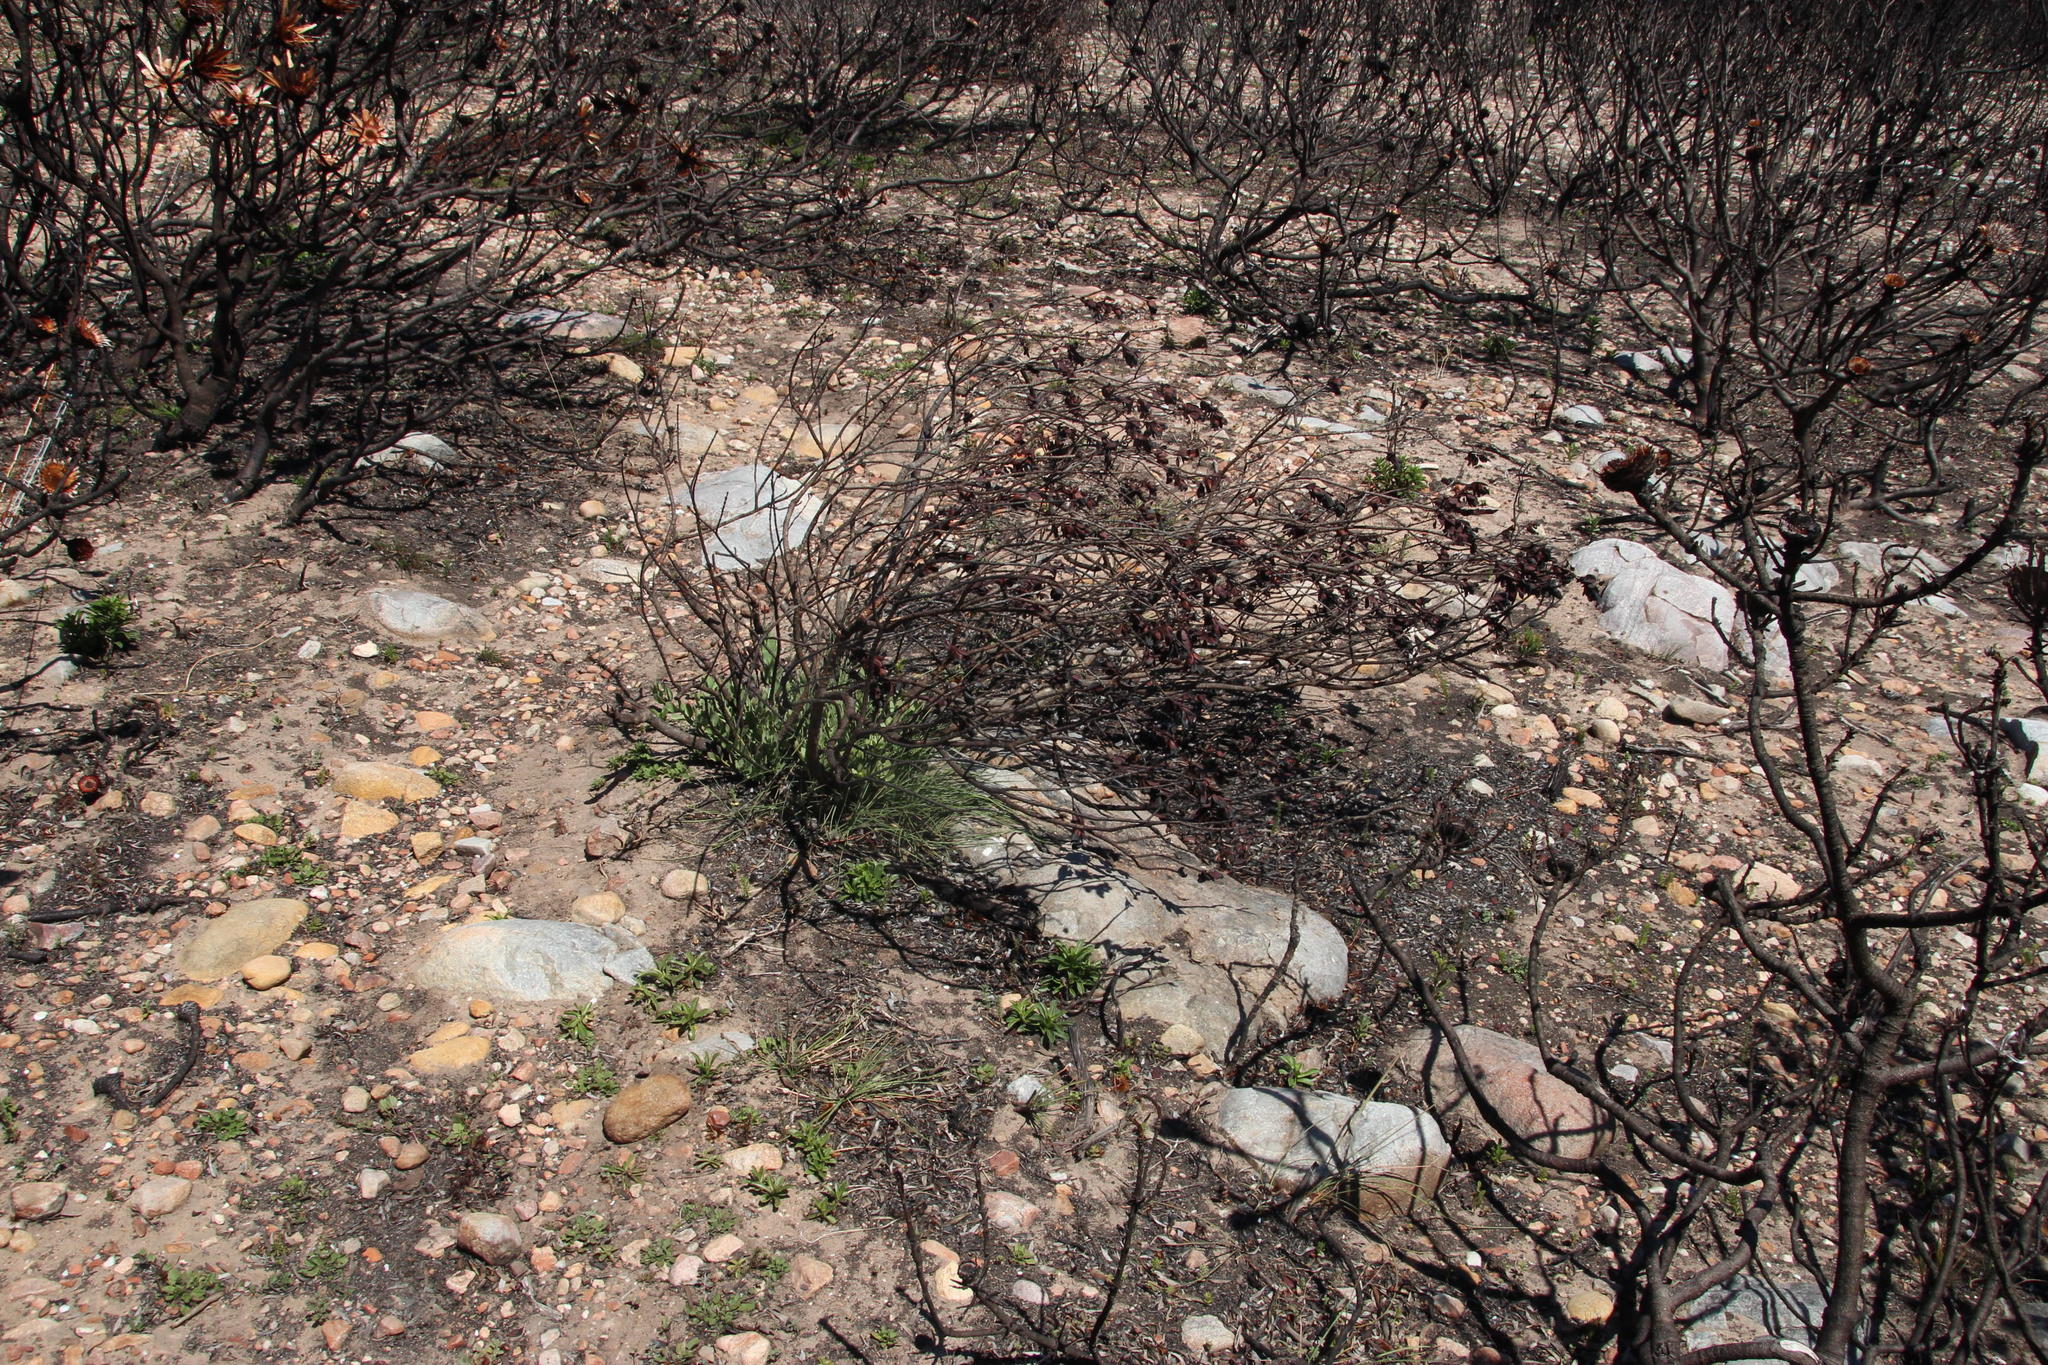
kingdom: Plantae
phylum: Tracheophyta
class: Magnoliopsida
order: Santalales
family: Santalaceae
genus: Osyris
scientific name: Osyris compressa
